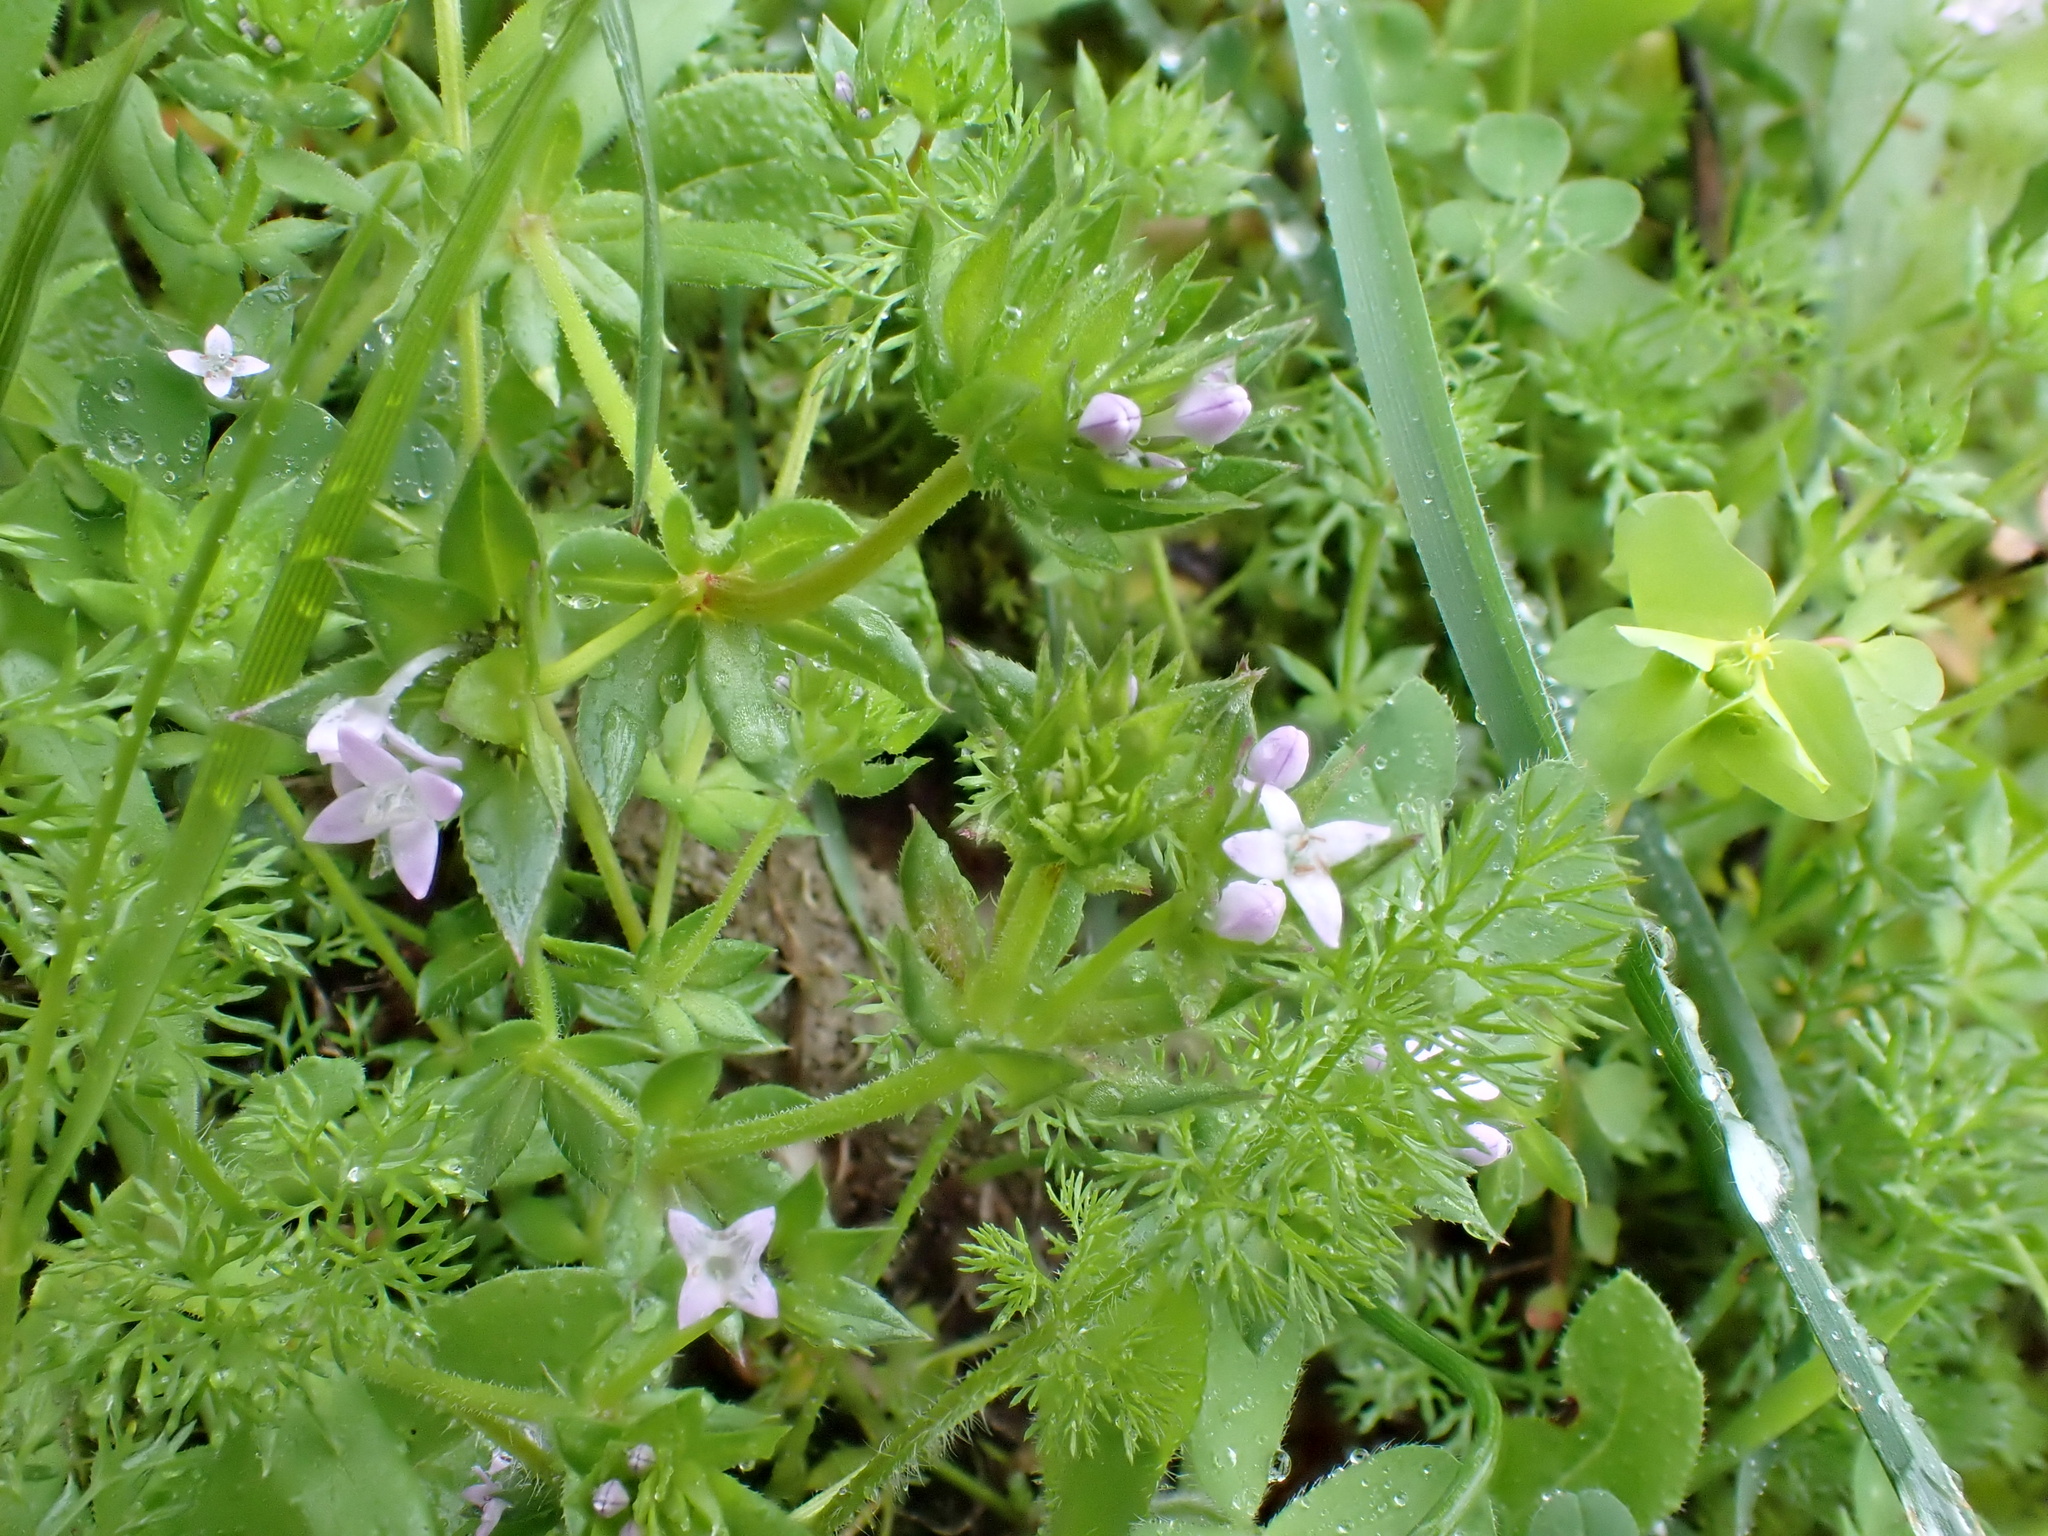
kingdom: Plantae
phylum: Tracheophyta
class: Magnoliopsida
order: Gentianales
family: Rubiaceae
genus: Sherardia
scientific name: Sherardia arvensis
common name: Field madder
